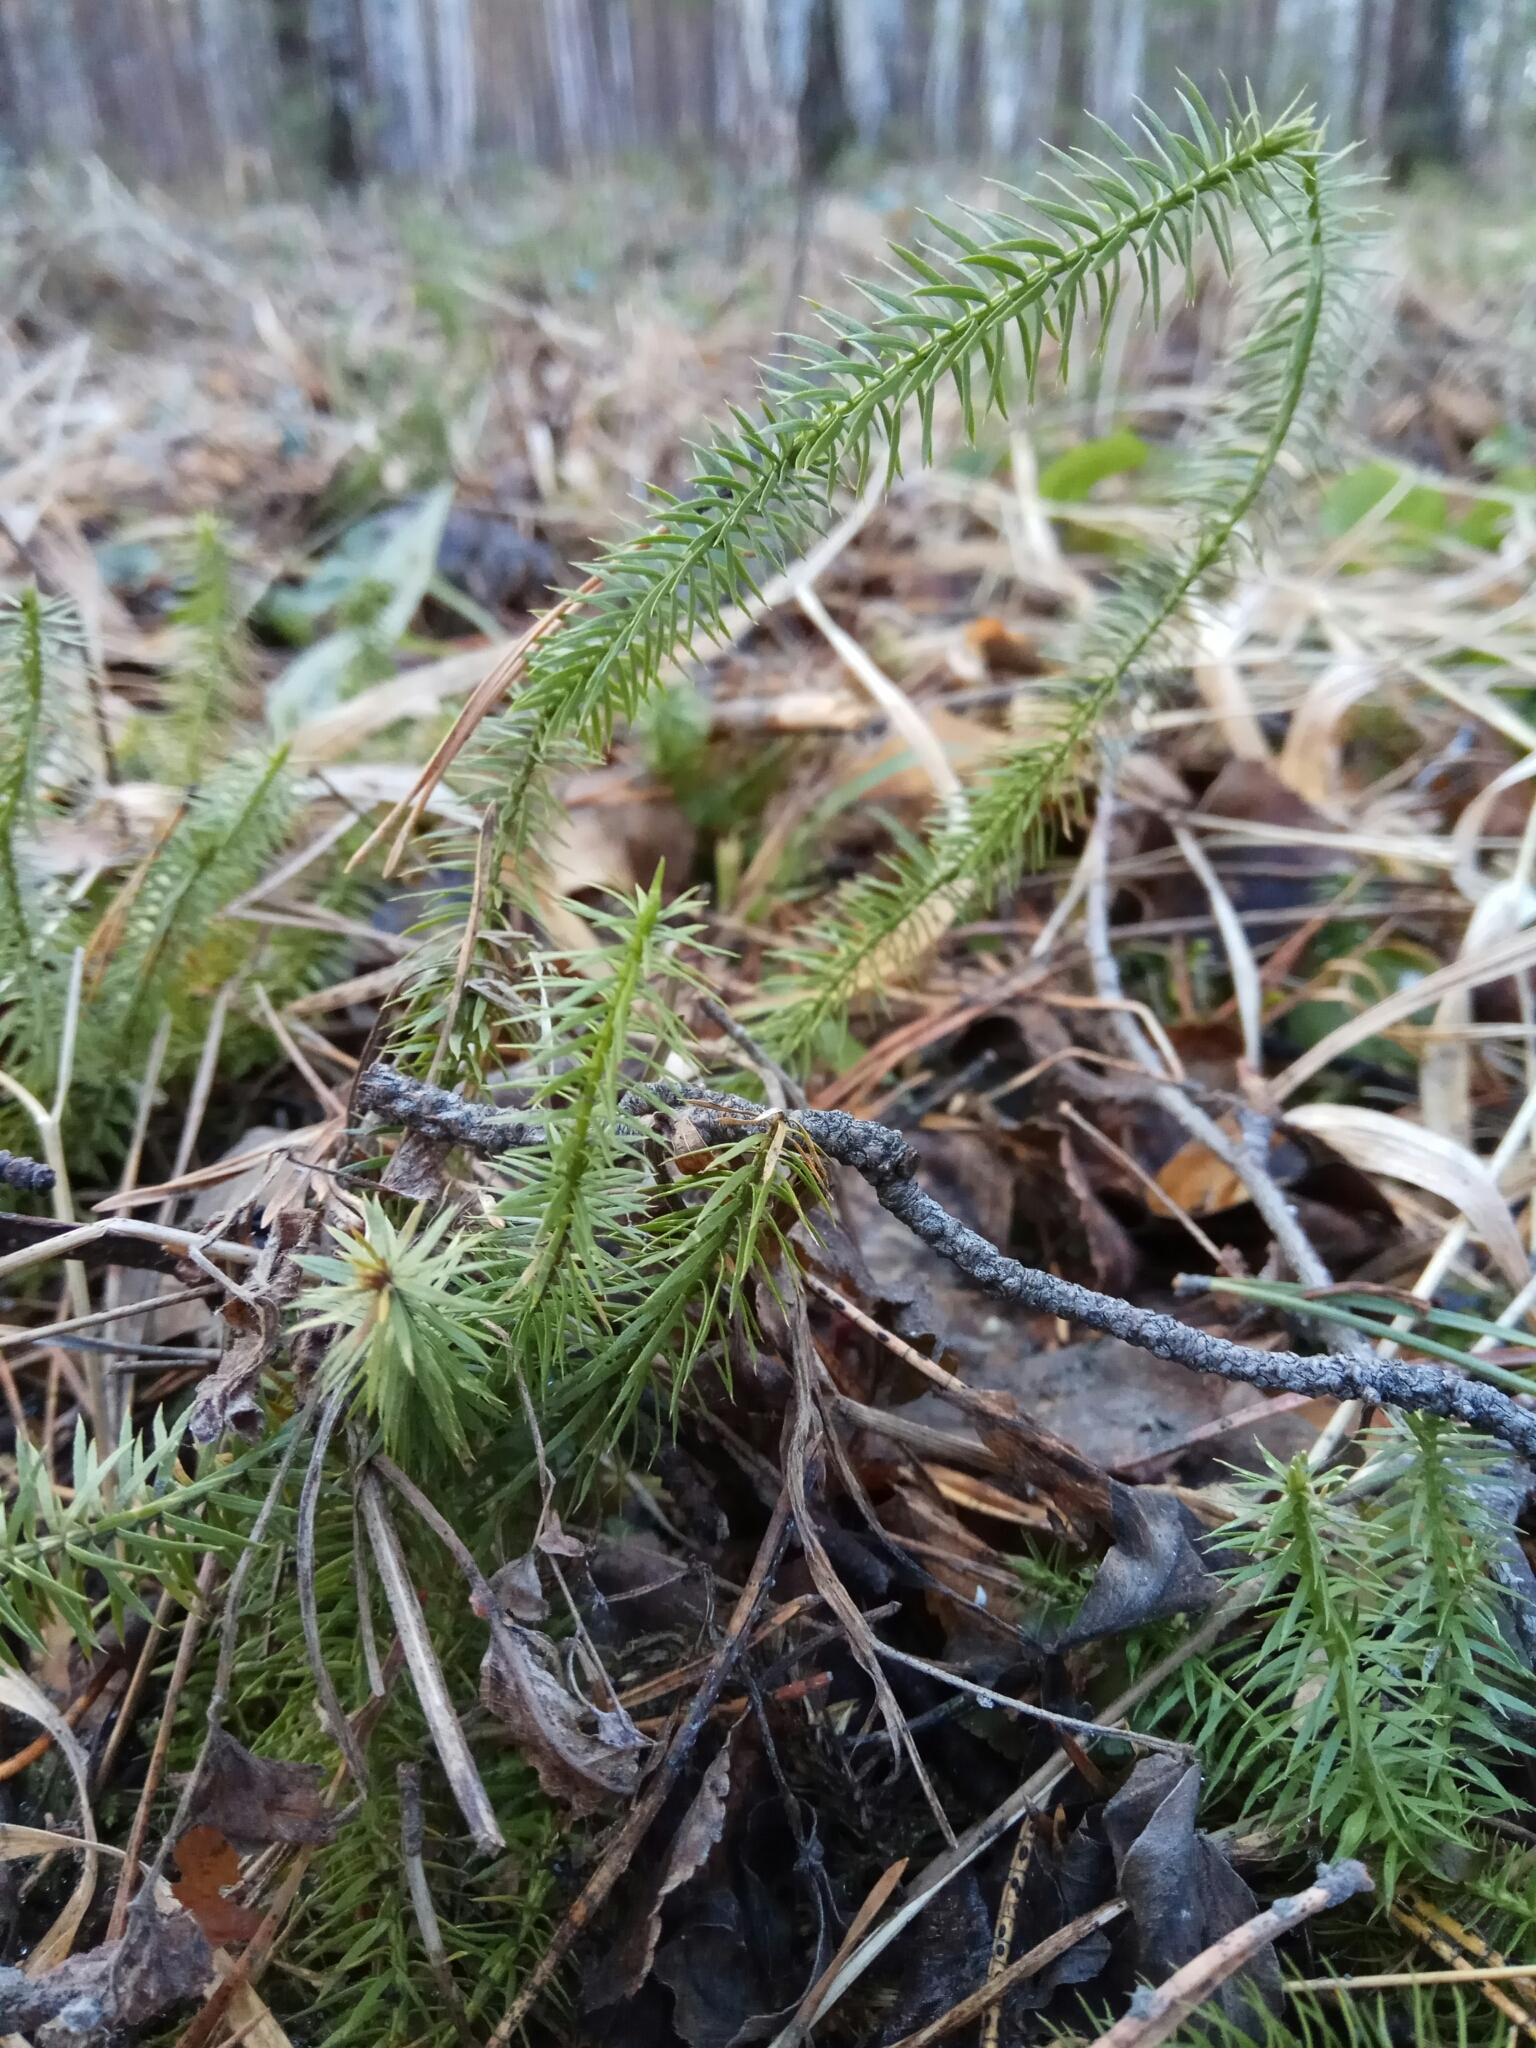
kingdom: Plantae
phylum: Tracheophyta
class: Lycopodiopsida
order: Lycopodiales
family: Lycopodiaceae
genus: Spinulum
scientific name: Spinulum annotinum
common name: Interrupted club-moss
